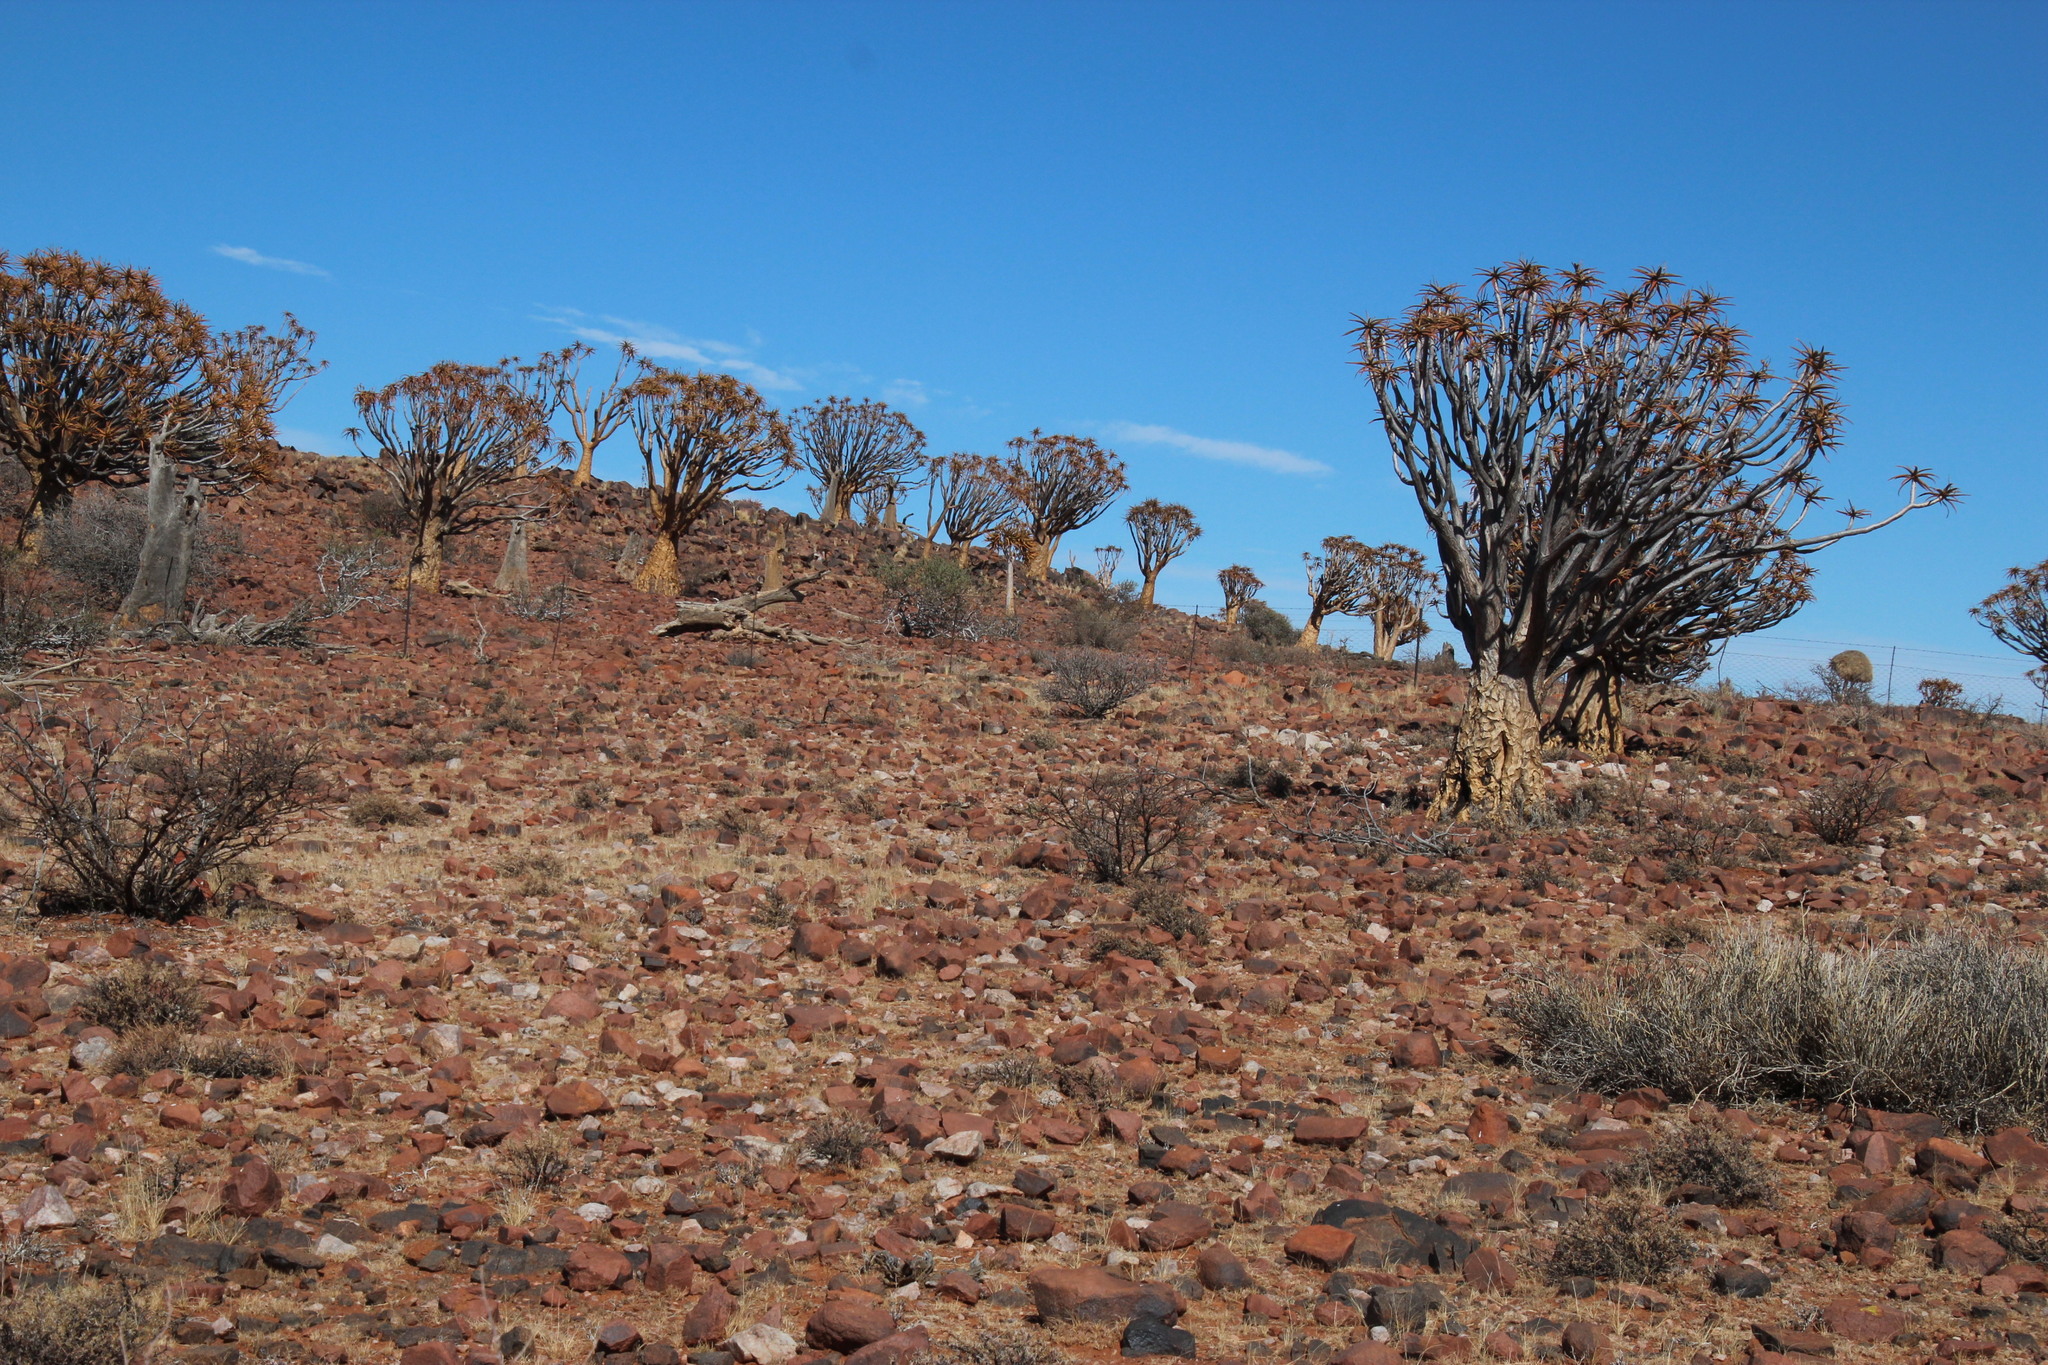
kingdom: Plantae
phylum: Tracheophyta
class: Liliopsida
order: Asparagales
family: Asphodelaceae
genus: Aloidendron
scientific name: Aloidendron dichotomum
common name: Quiver tree
